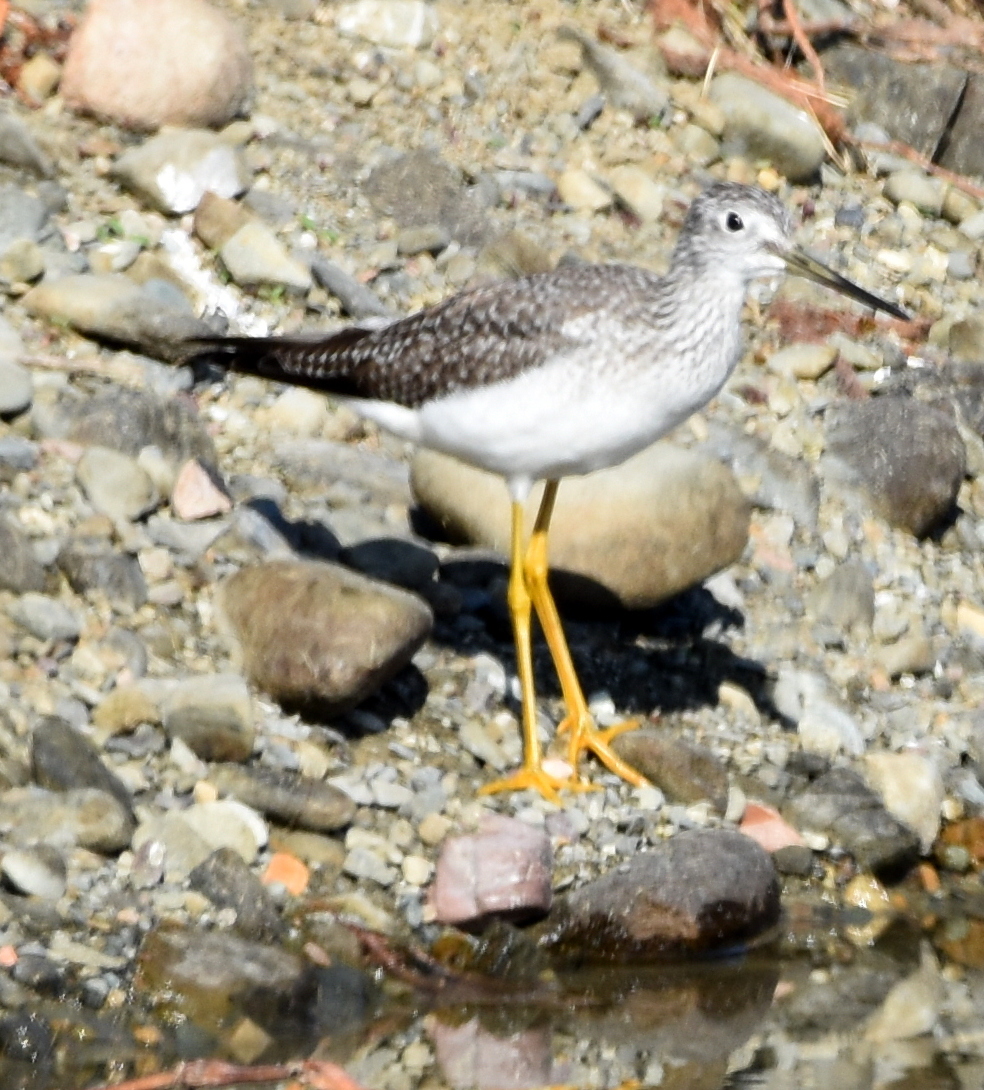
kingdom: Animalia
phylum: Chordata
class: Aves
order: Charadriiformes
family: Scolopacidae
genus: Tringa
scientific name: Tringa melanoleuca
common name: Greater yellowlegs
